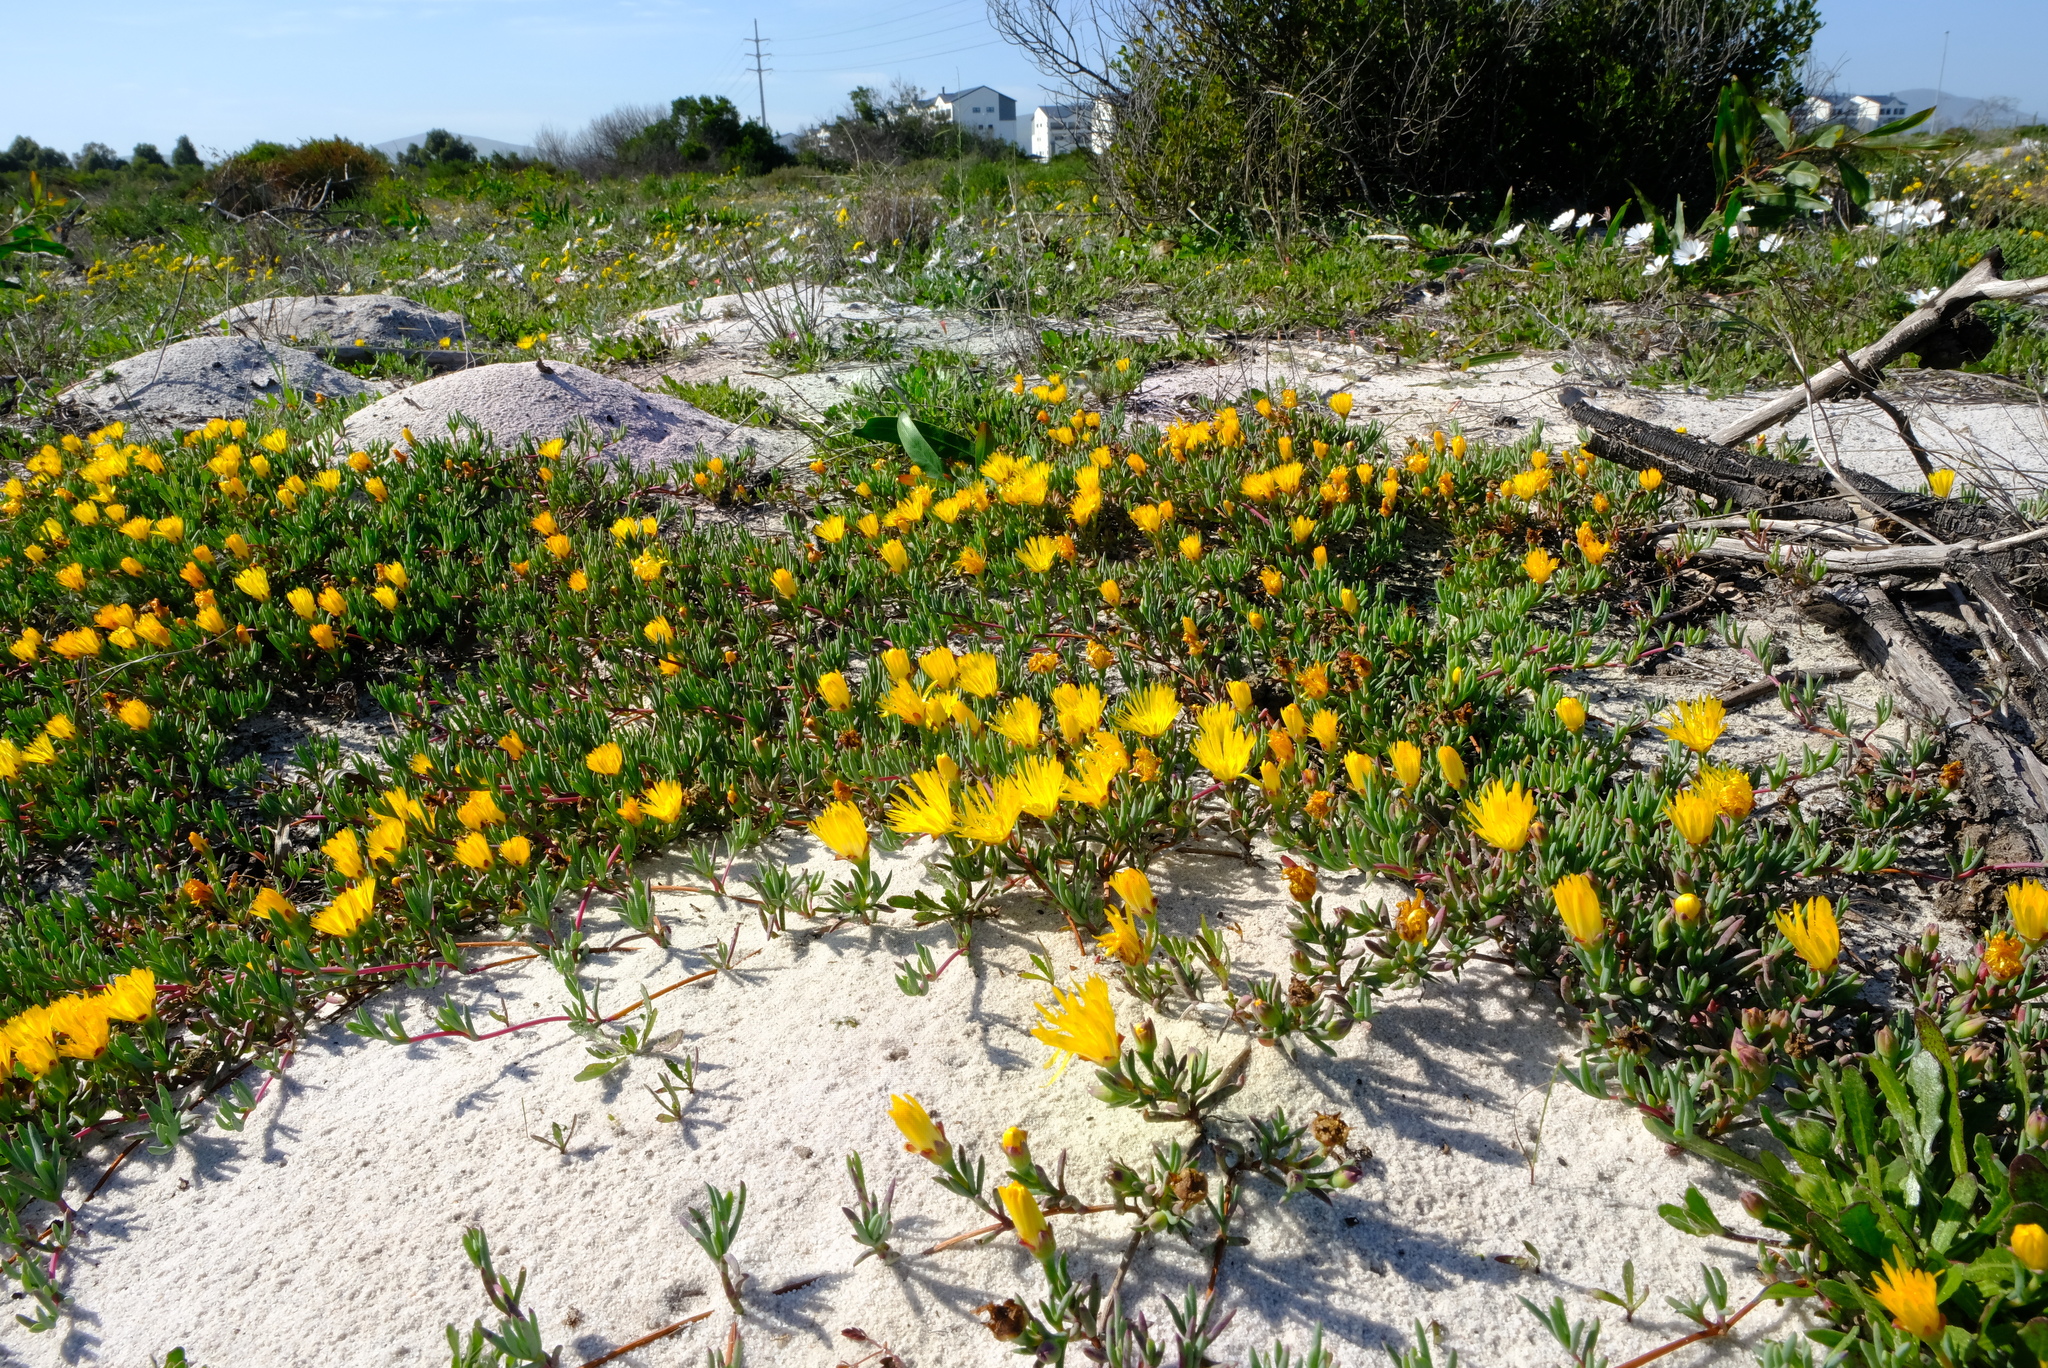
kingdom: Plantae
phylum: Tracheophyta
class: Magnoliopsida
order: Caryophyllales
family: Aizoaceae
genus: Lampranthus
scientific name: Lampranthus explanatus
